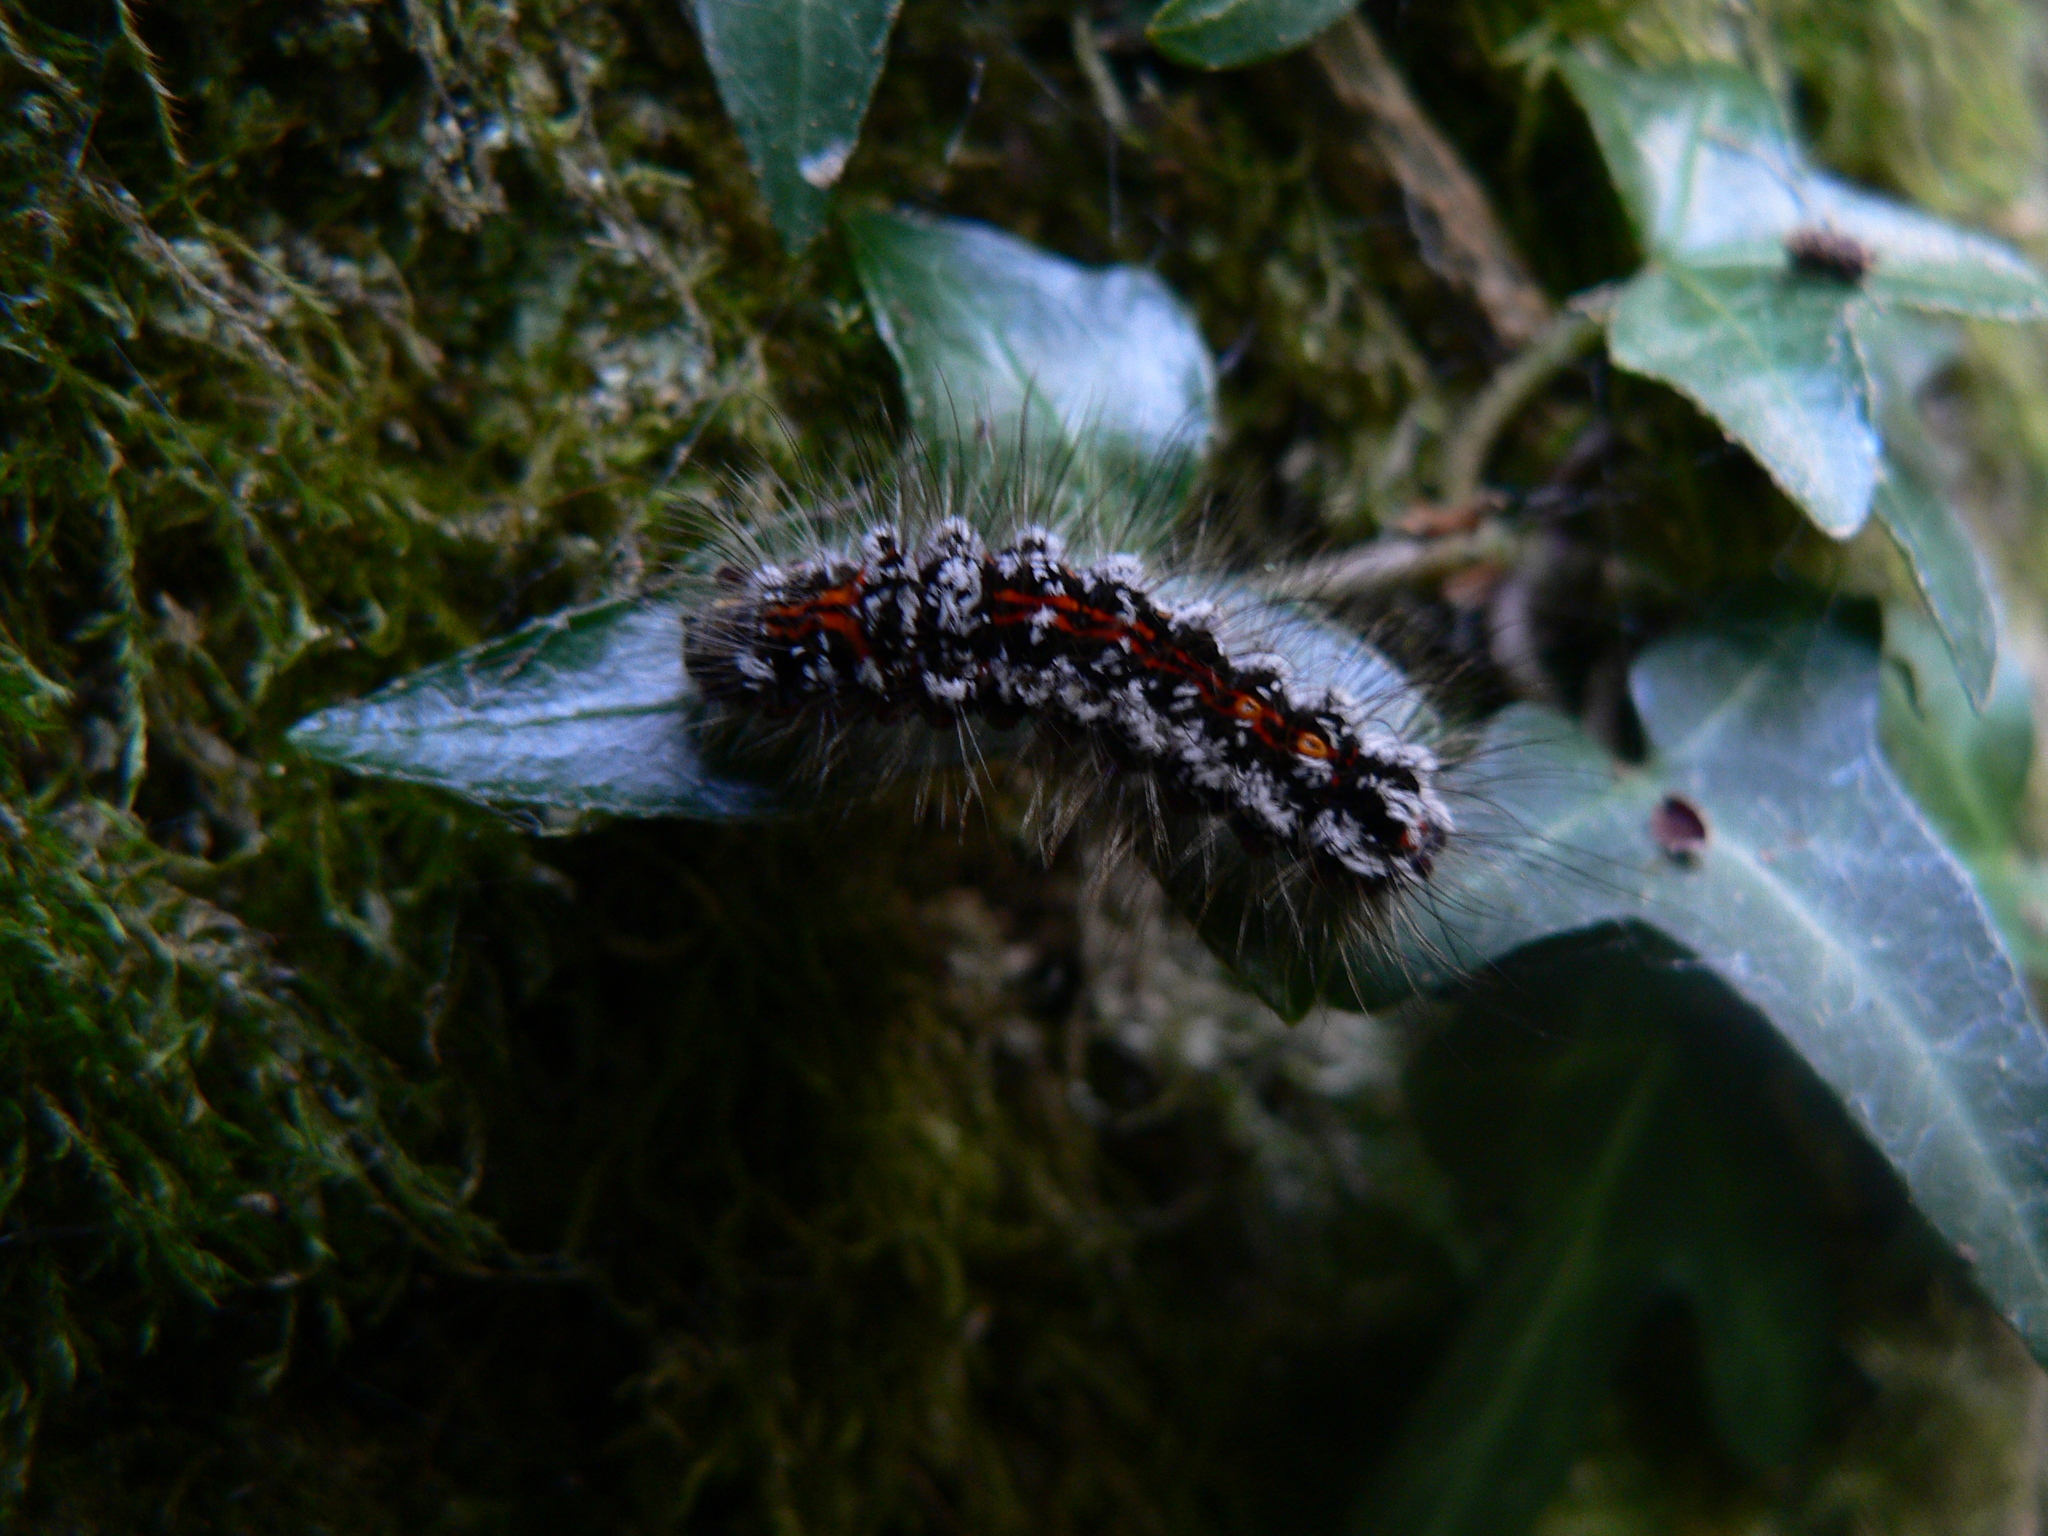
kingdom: Animalia
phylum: Arthropoda
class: Insecta
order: Lepidoptera
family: Erebidae
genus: Sphrageidus
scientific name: Sphrageidus similis
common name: Yellow-tail
